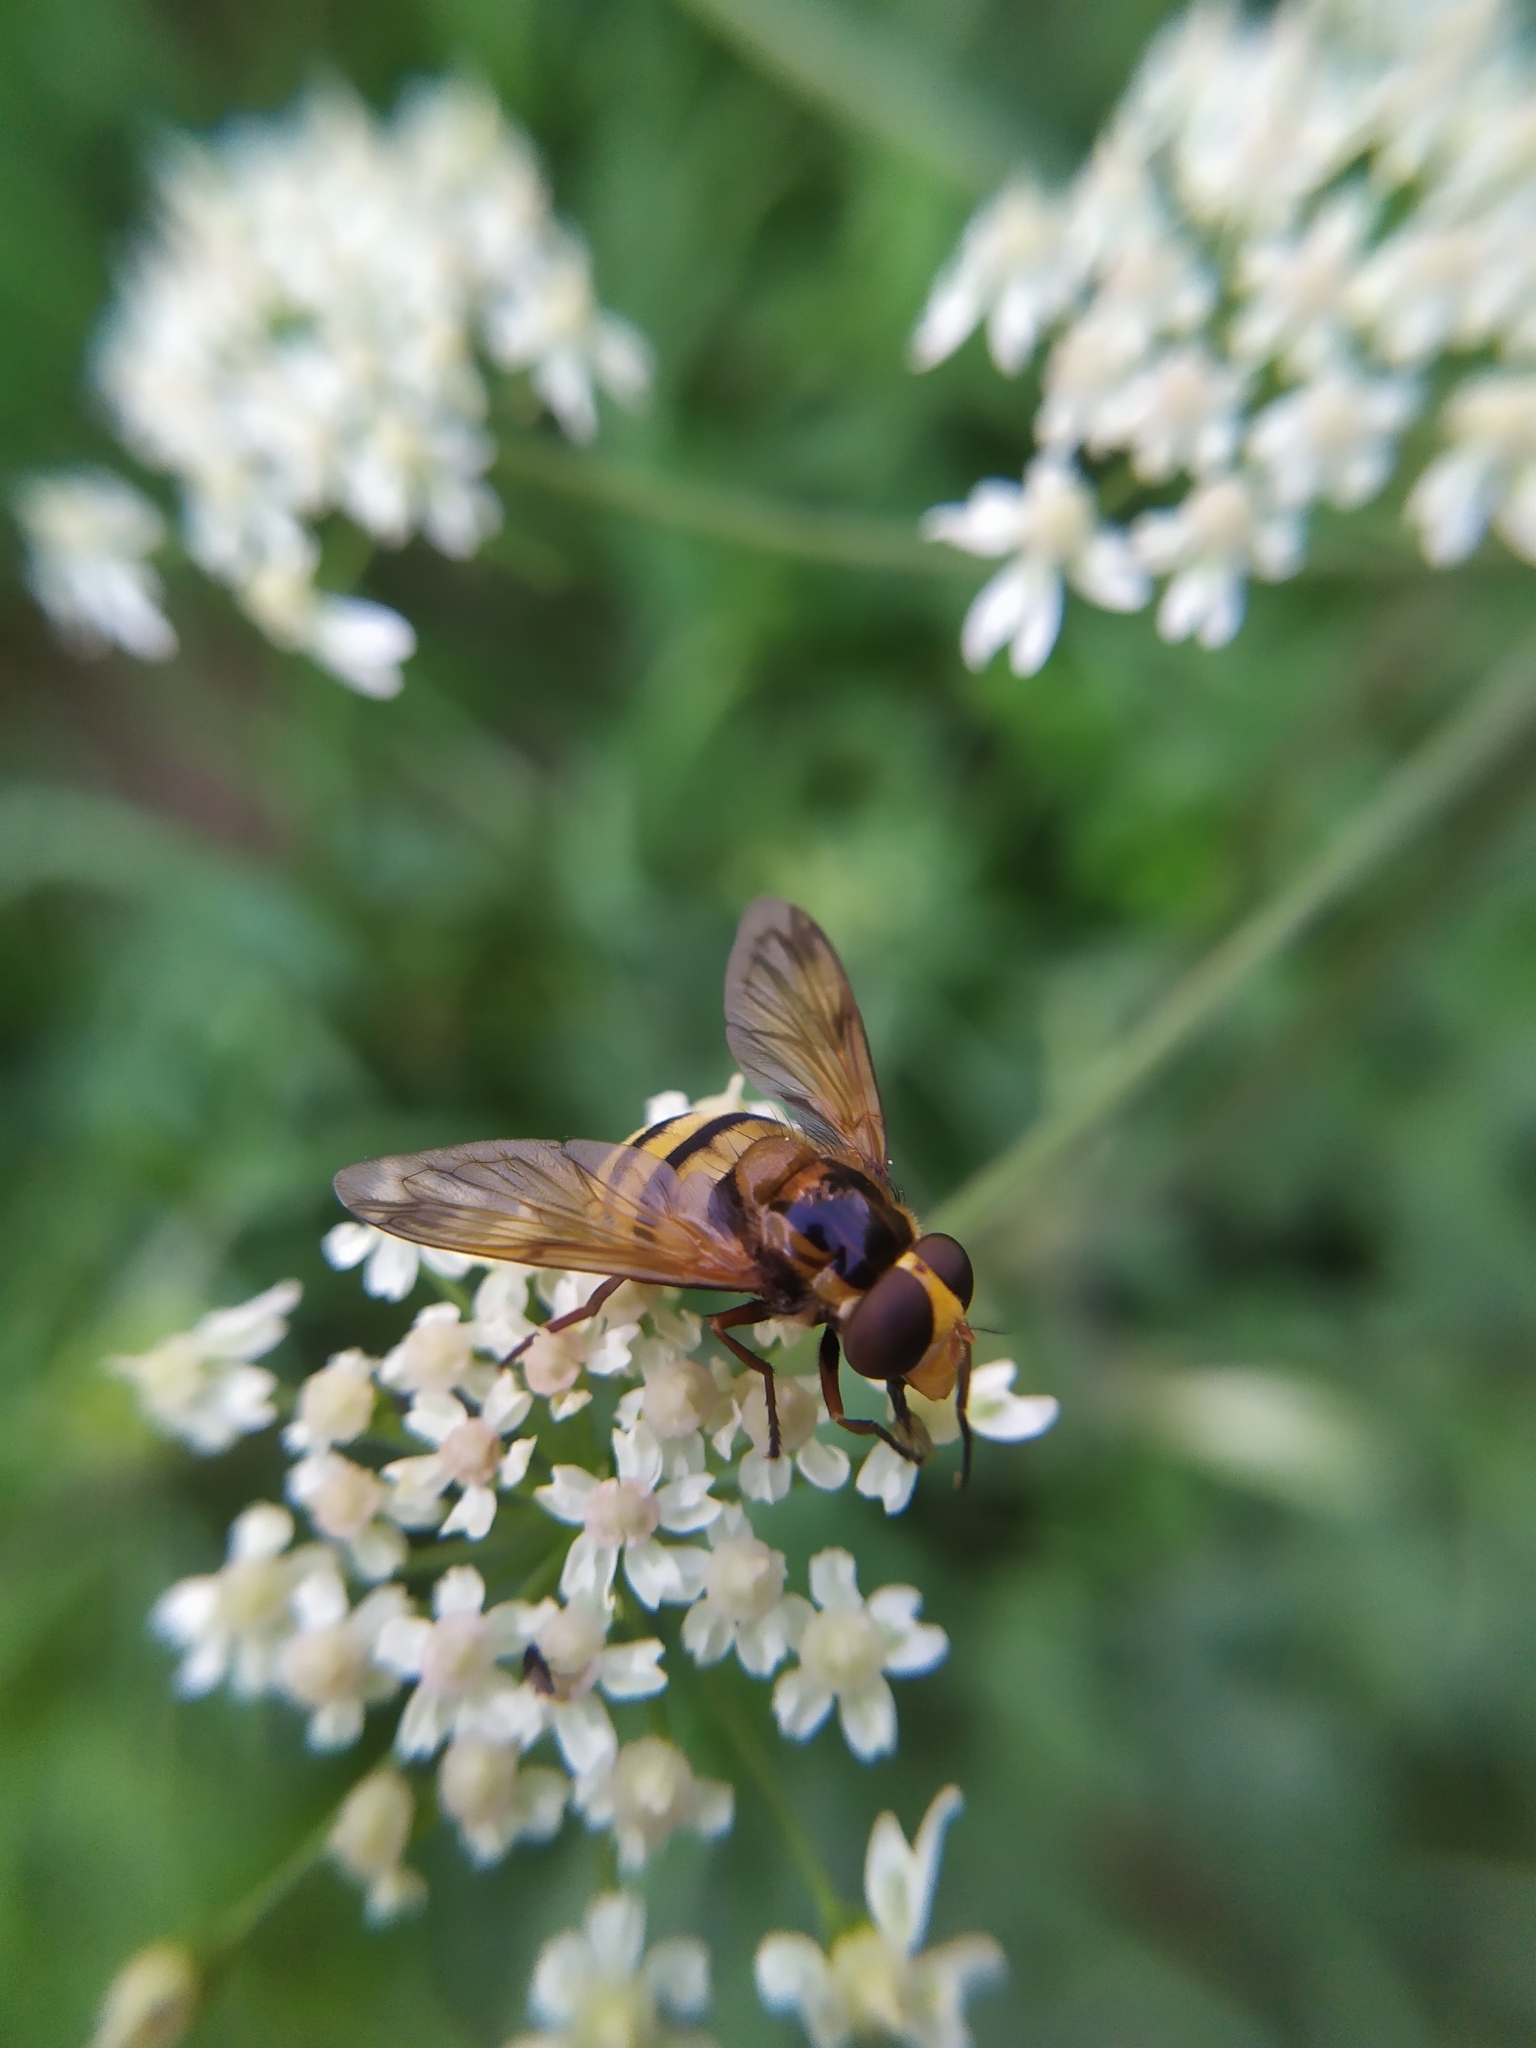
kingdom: Animalia
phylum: Arthropoda
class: Insecta
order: Diptera
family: Syrphidae
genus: Volucella
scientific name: Volucella inanis
